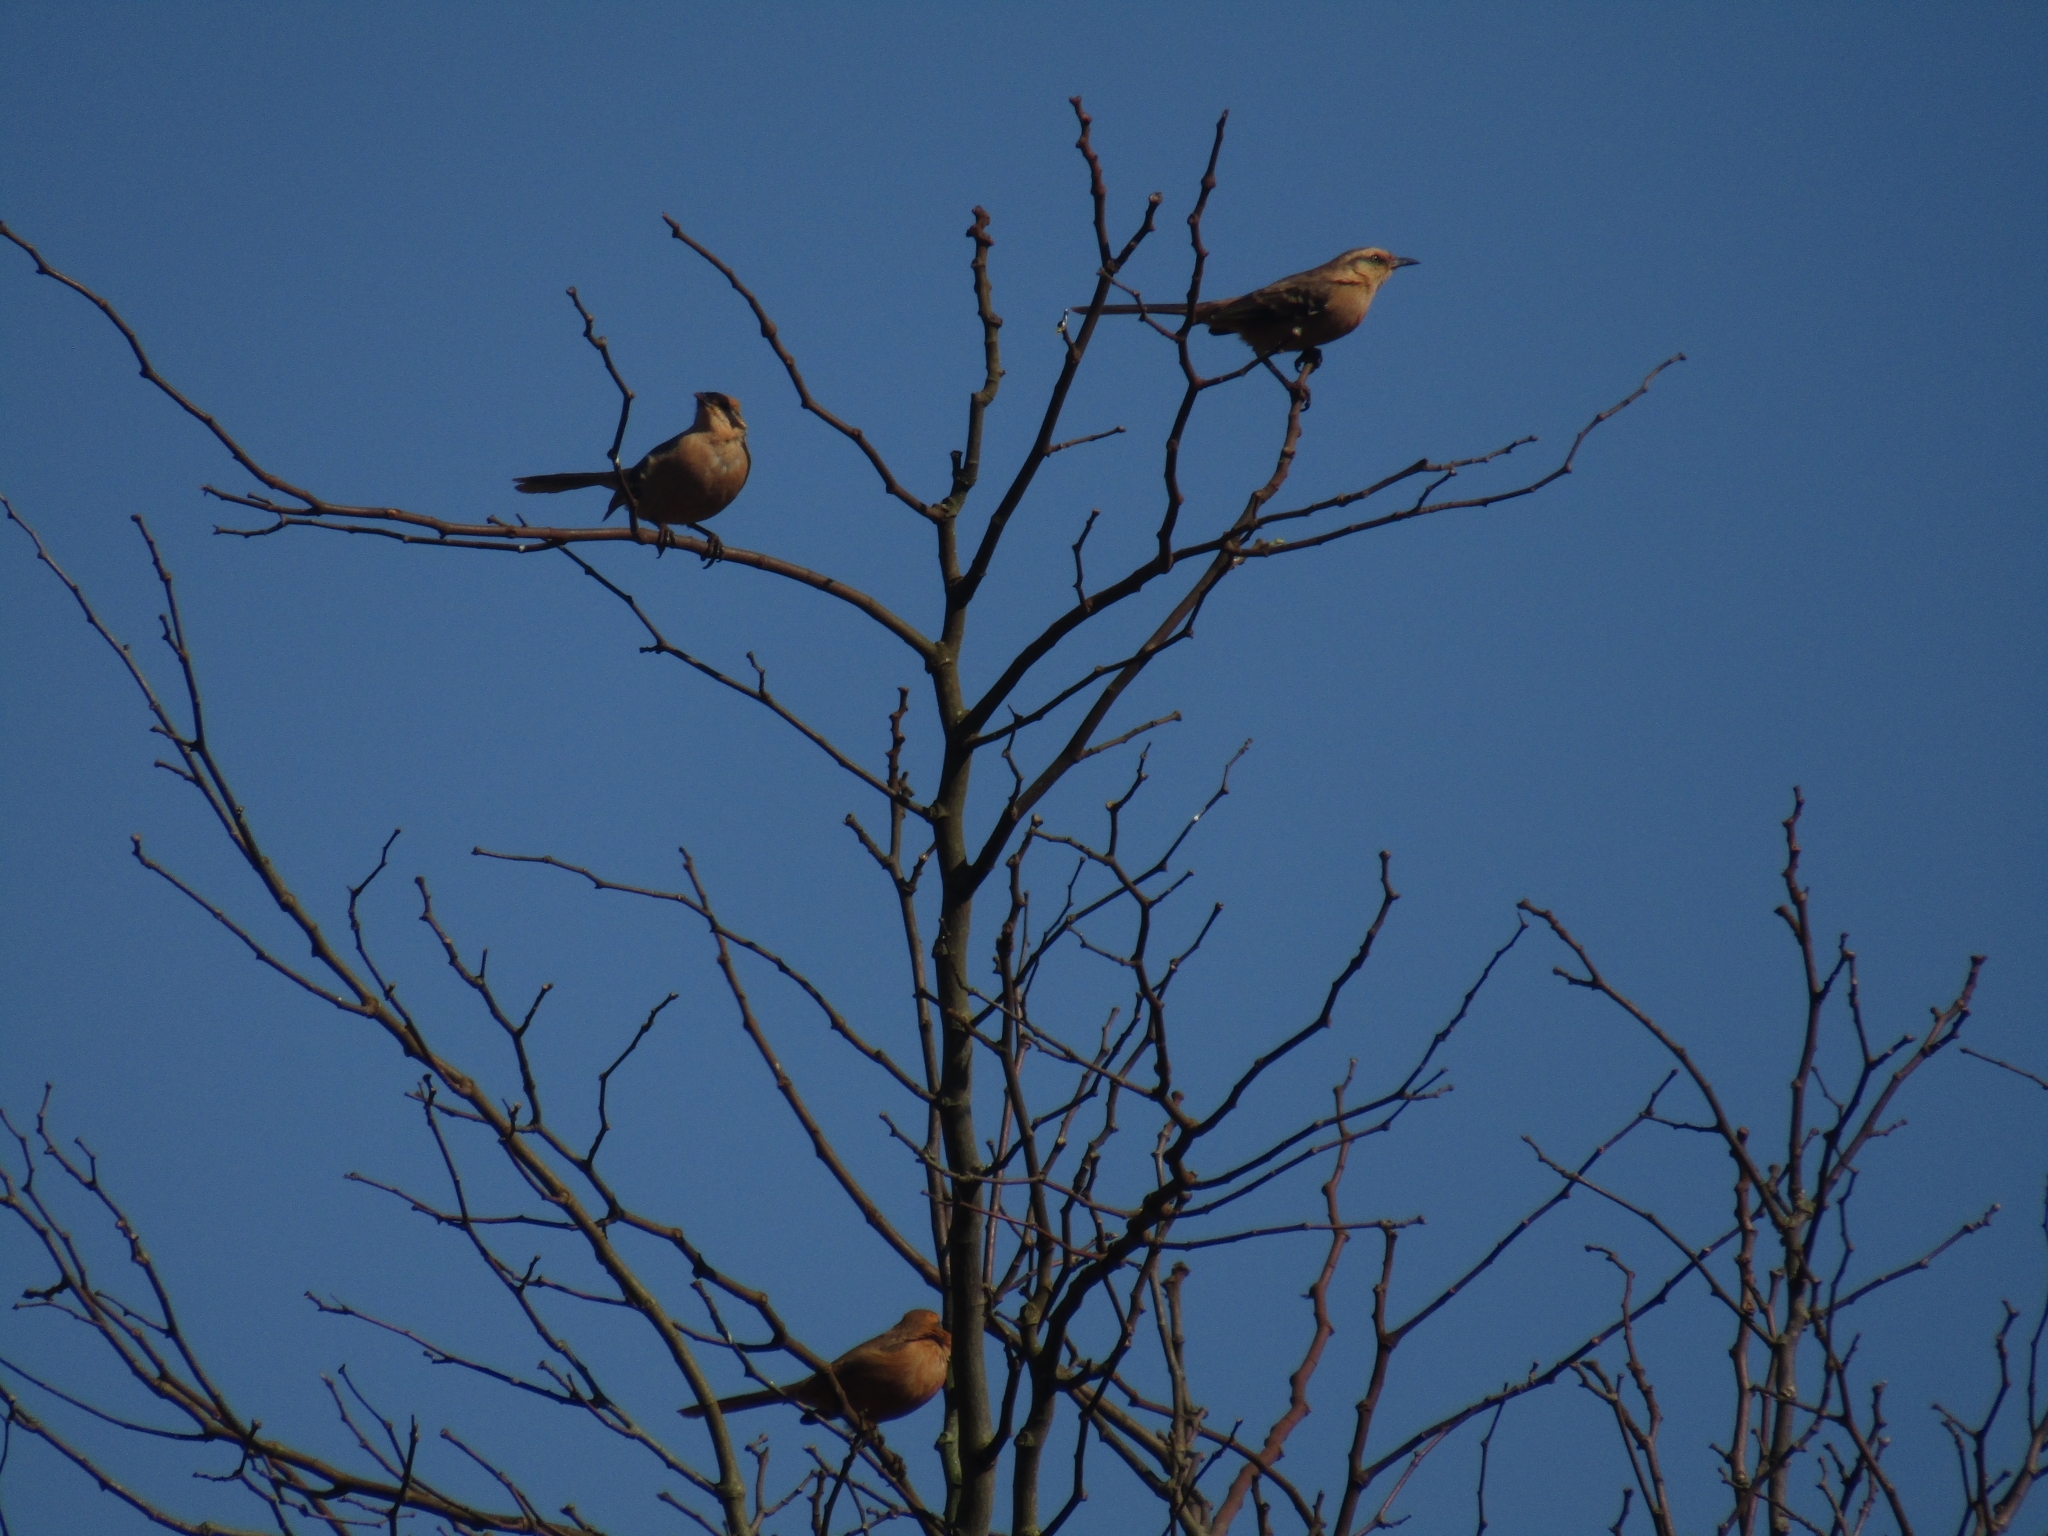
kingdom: Animalia
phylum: Chordata
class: Aves
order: Passeriformes
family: Mimidae
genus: Mimus
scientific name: Mimus saturninus
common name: Chalk-browed mockingbird
